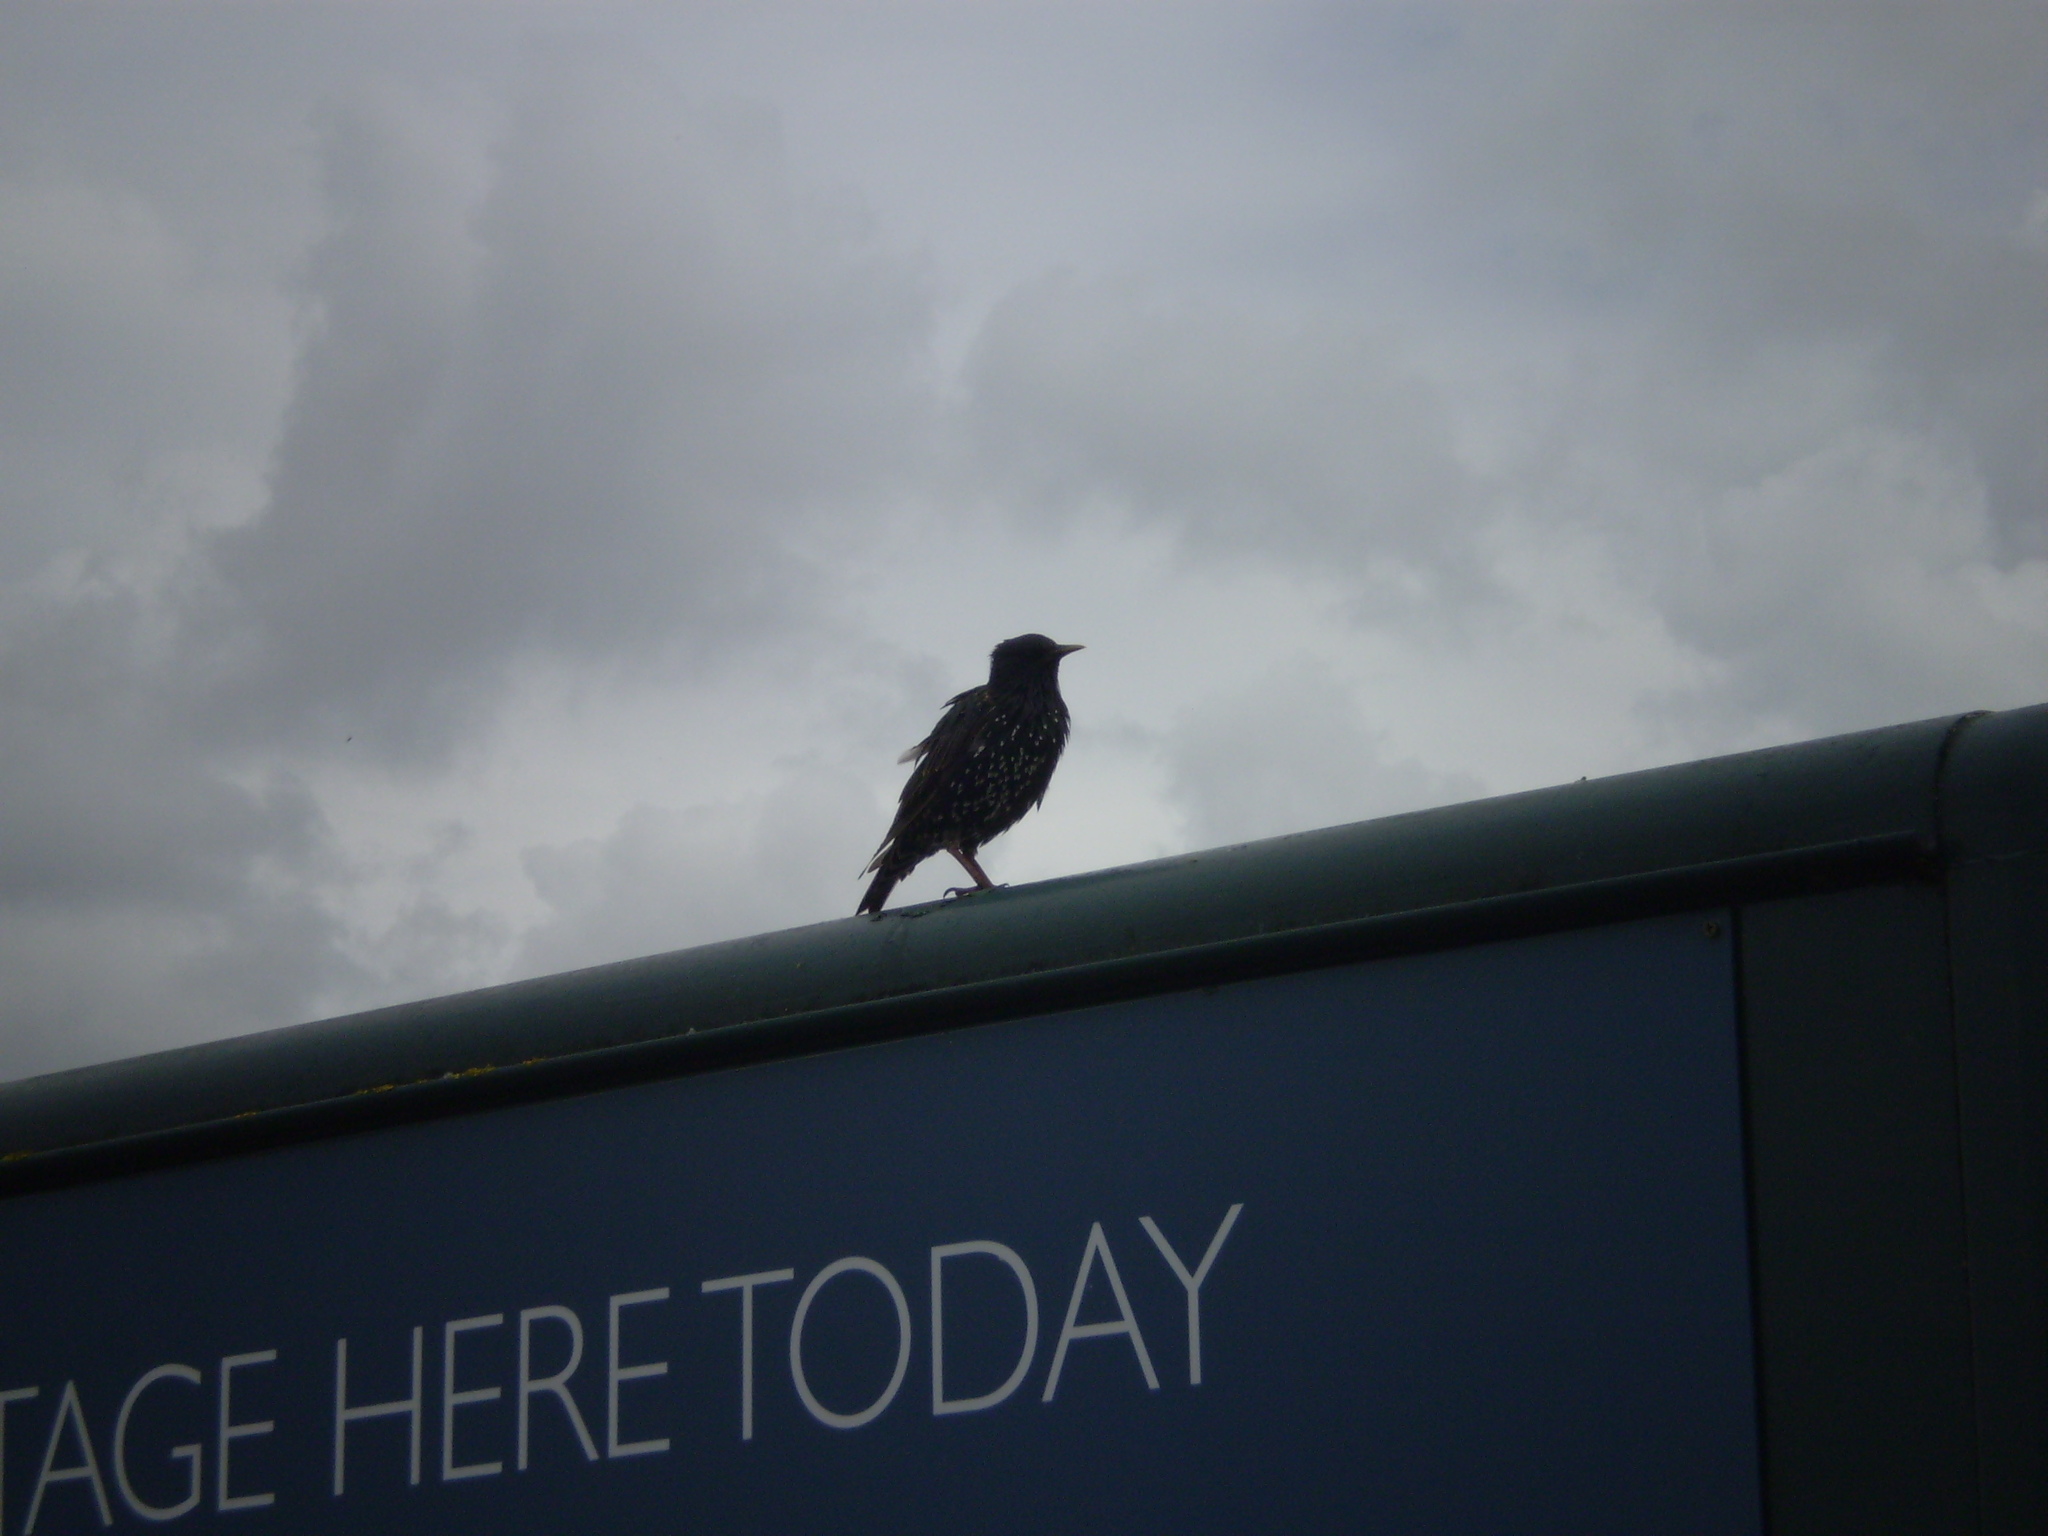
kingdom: Animalia
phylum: Chordata
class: Aves
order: Passeriformes
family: Sturnidae
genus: Sturnus
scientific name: Sturnus vulgaris
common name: Common starling
